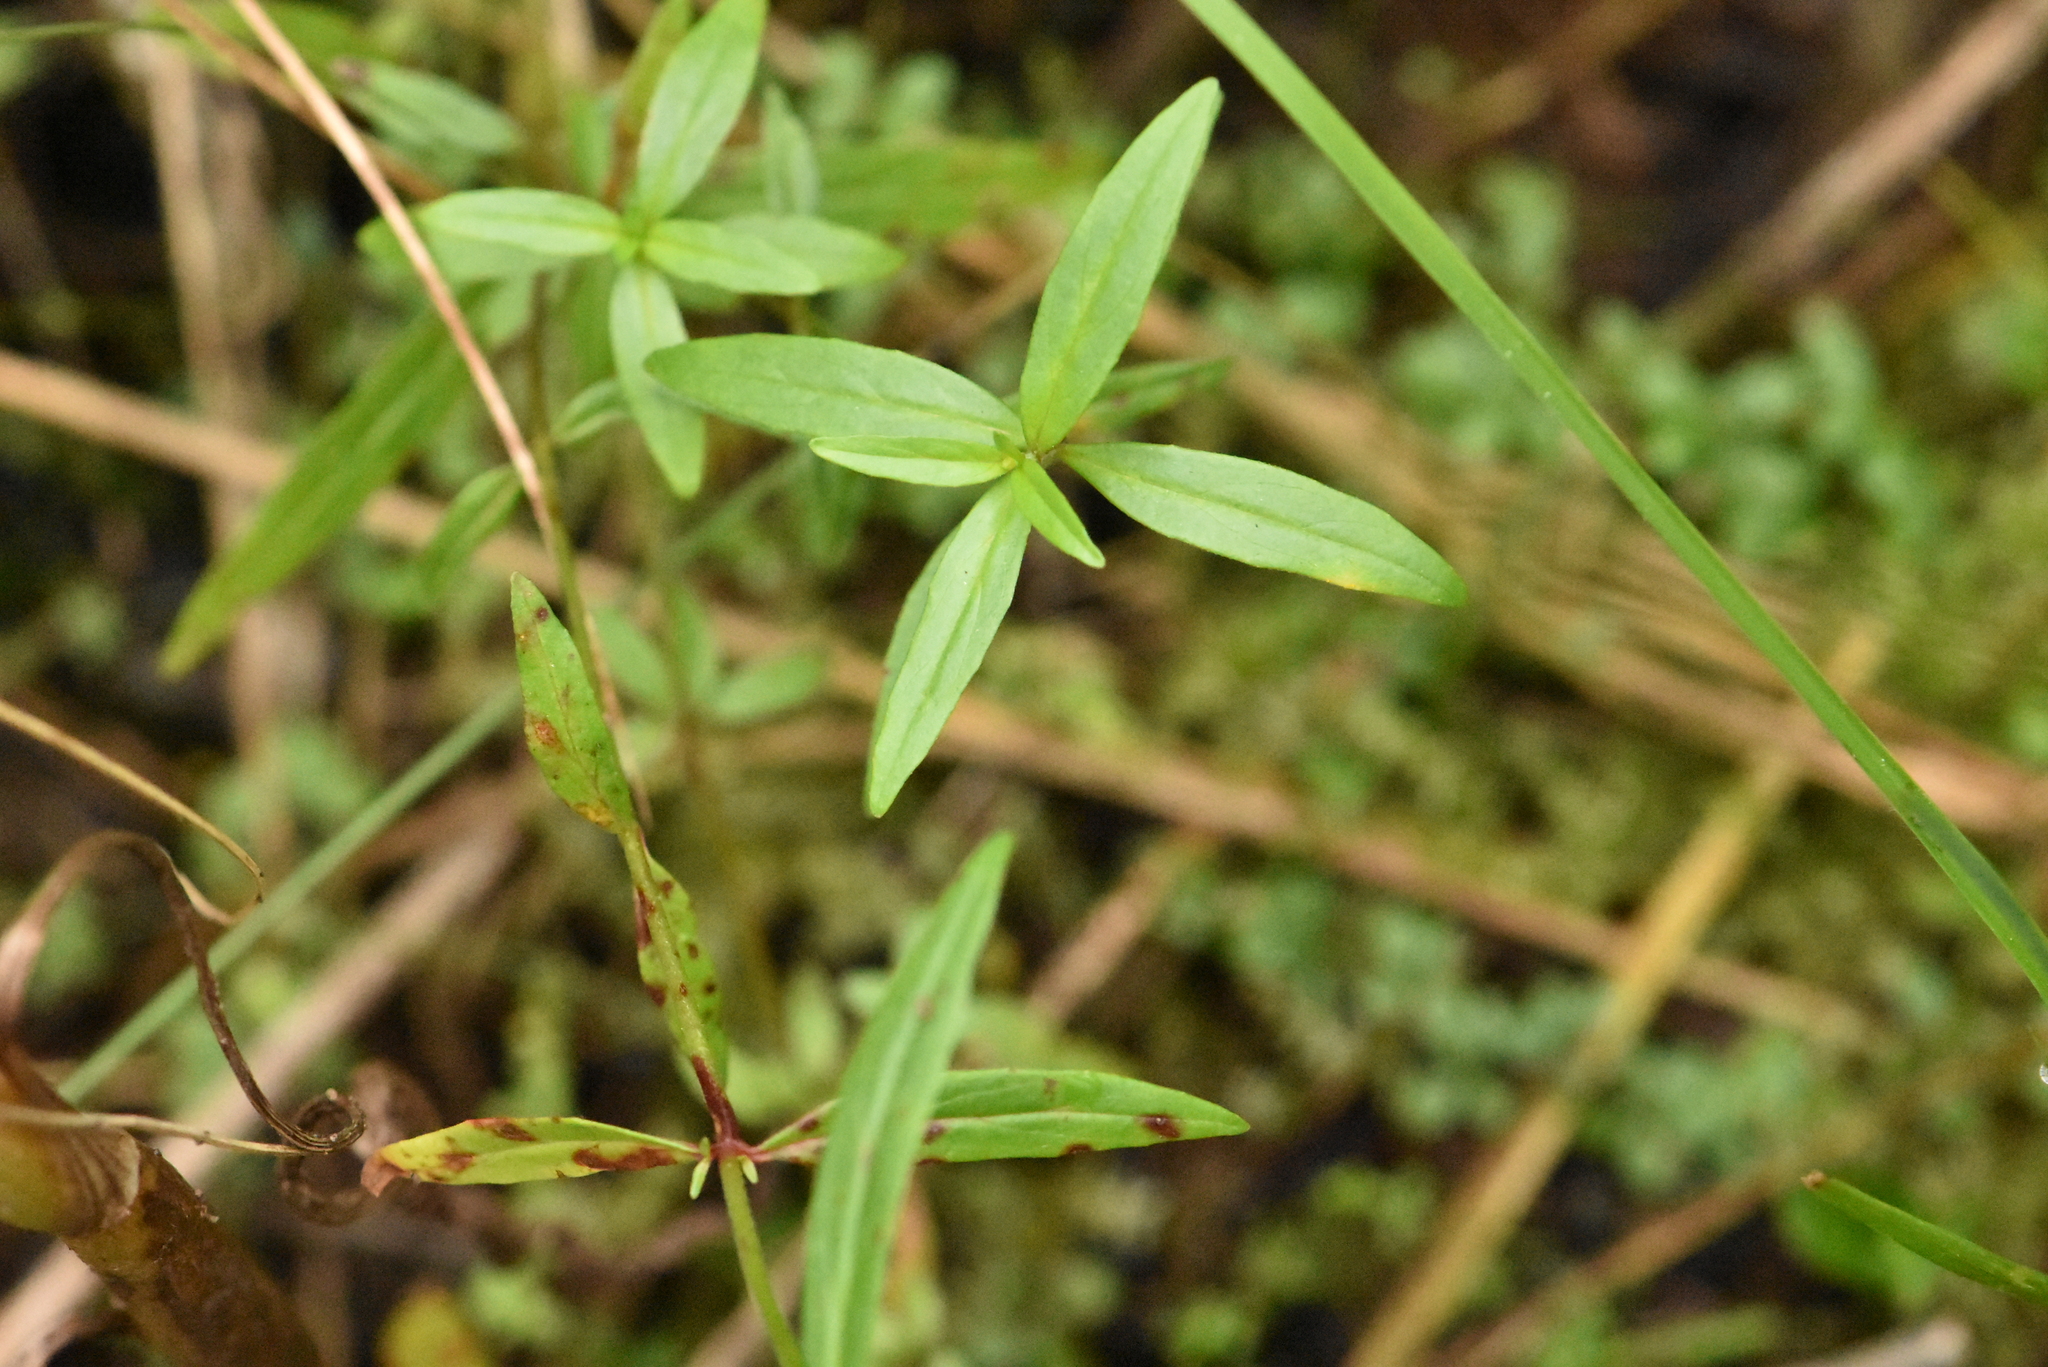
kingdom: Plantae
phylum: Tracheophyta
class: Magnoliopsida
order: Myrtales
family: Onagraceae
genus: Epilobium
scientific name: Epilobium palustre
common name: Marsh willowherb
